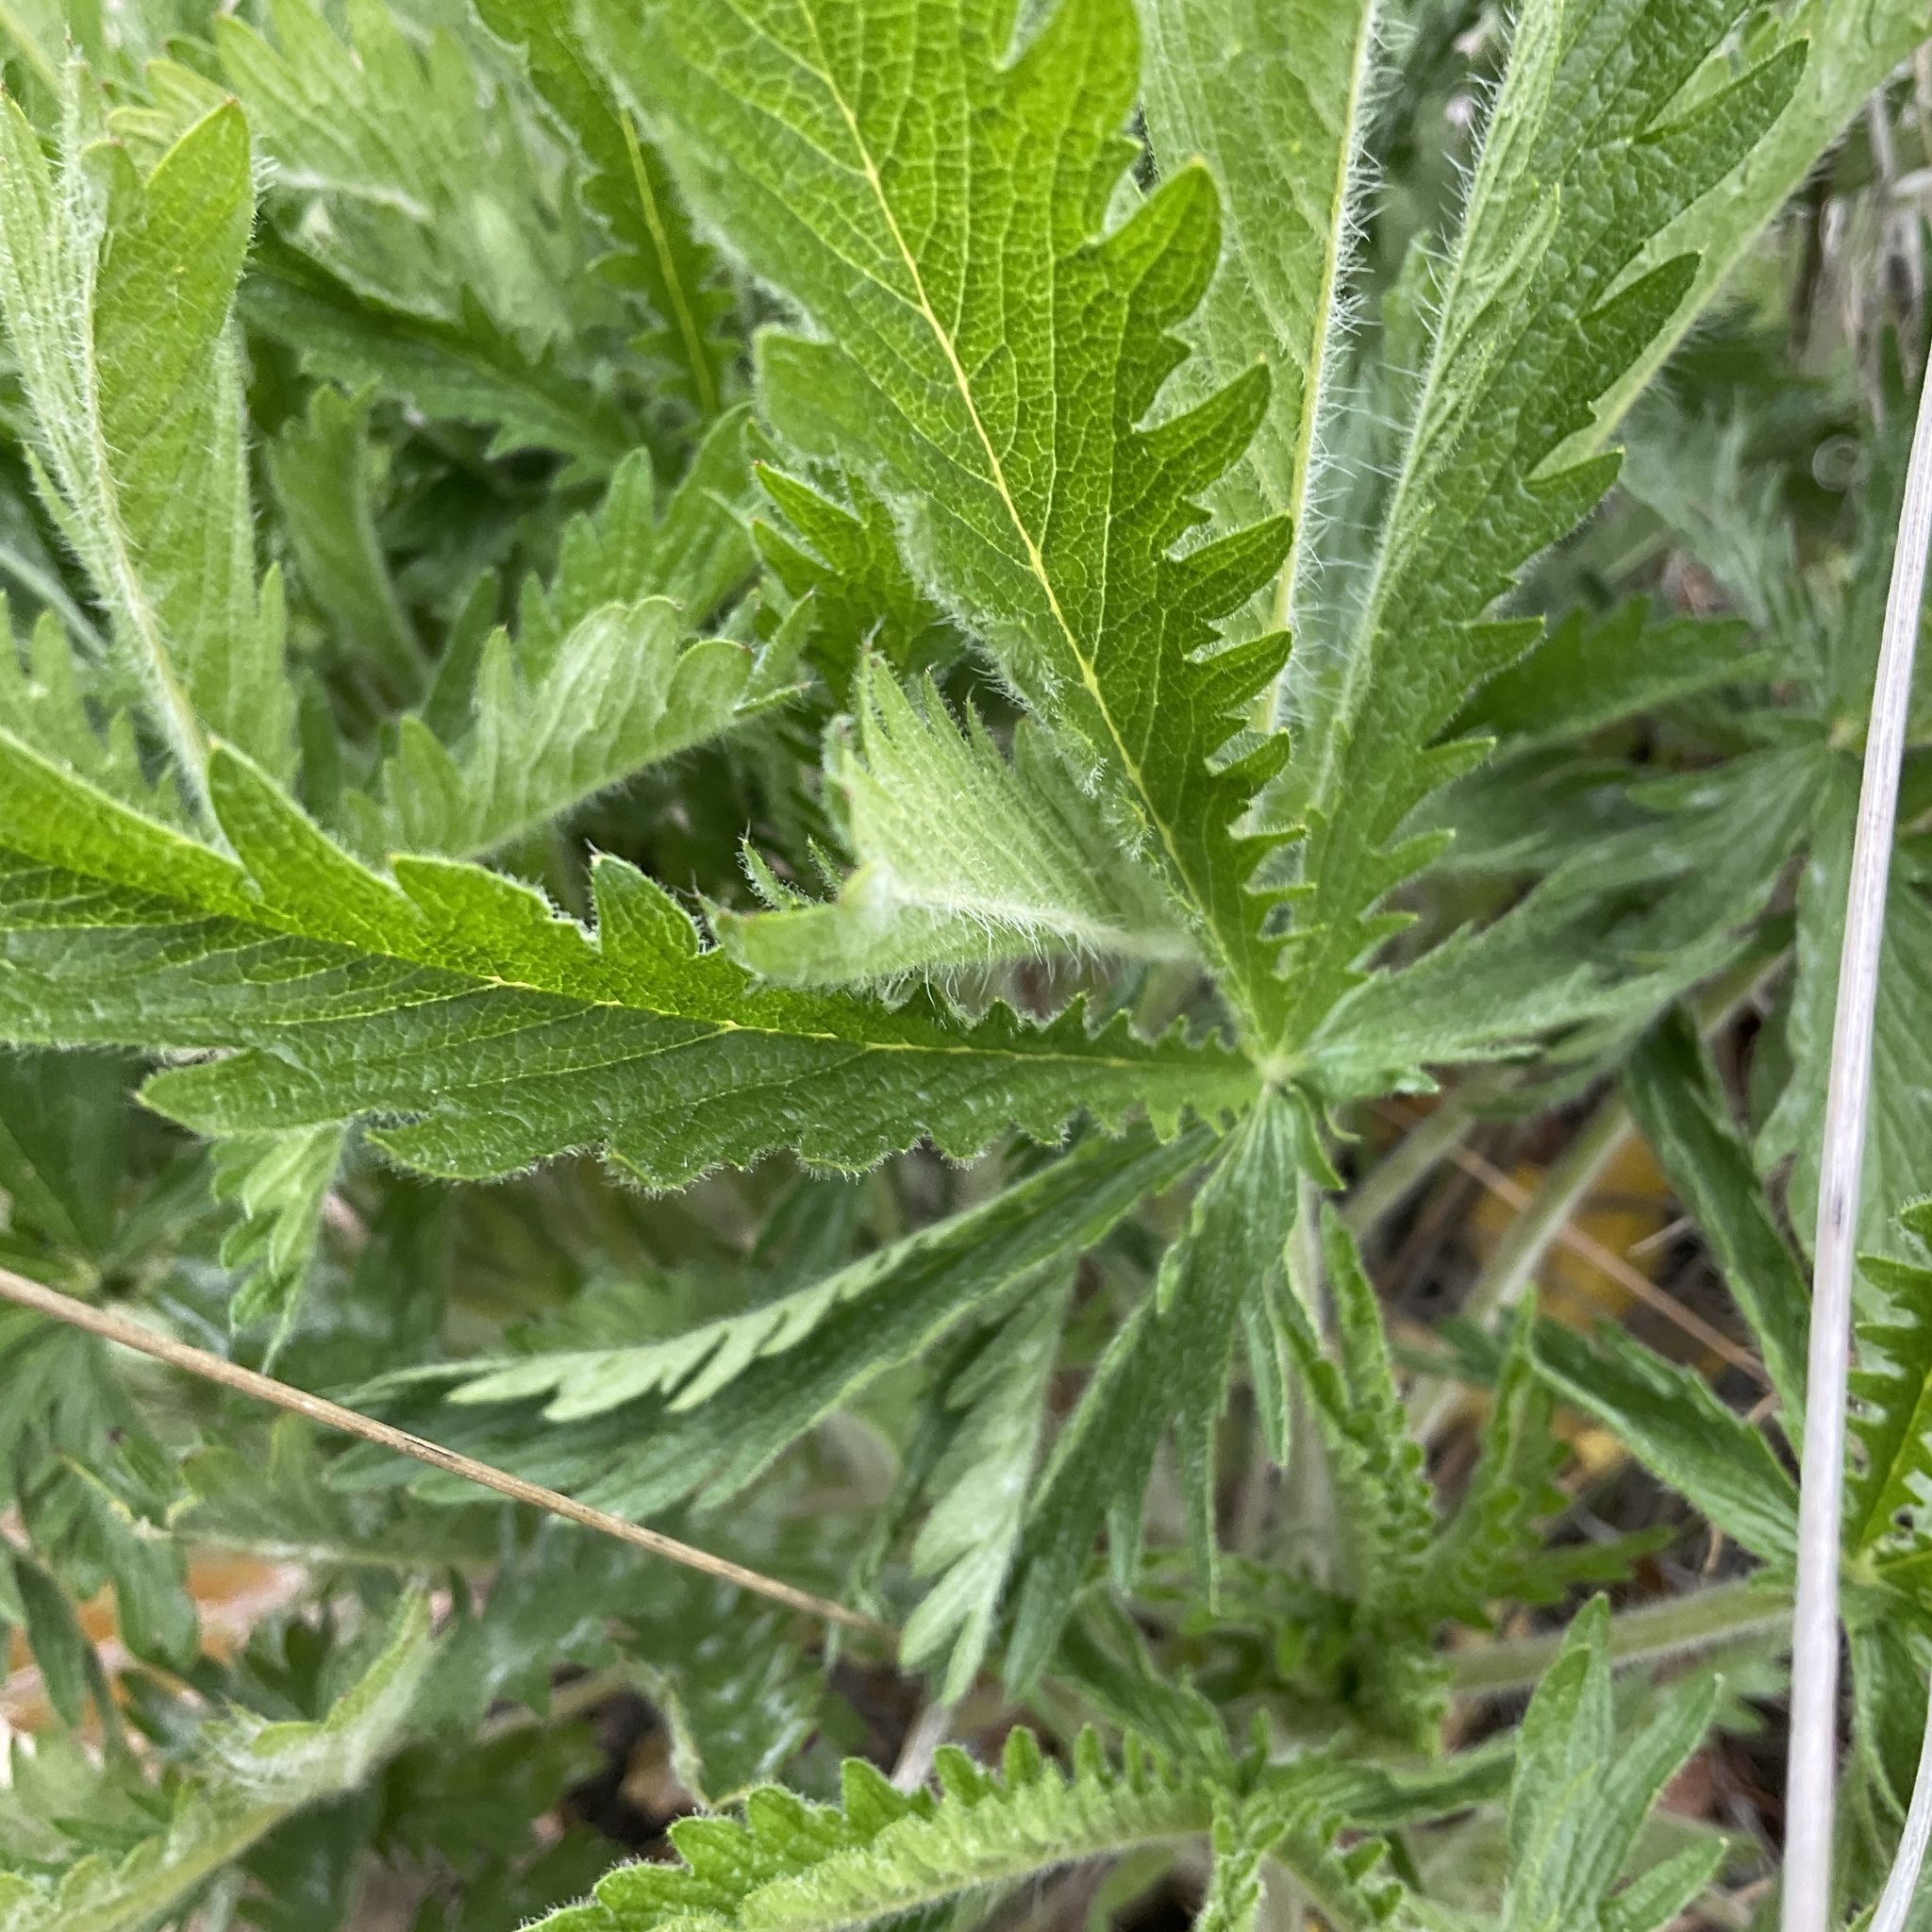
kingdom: Plantae
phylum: Tracheophyta
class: Magnoliopsida
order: Rosales
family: Rosaceae
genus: Potentilla
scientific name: Potentilla recta
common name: Sulphur cinquefoil
